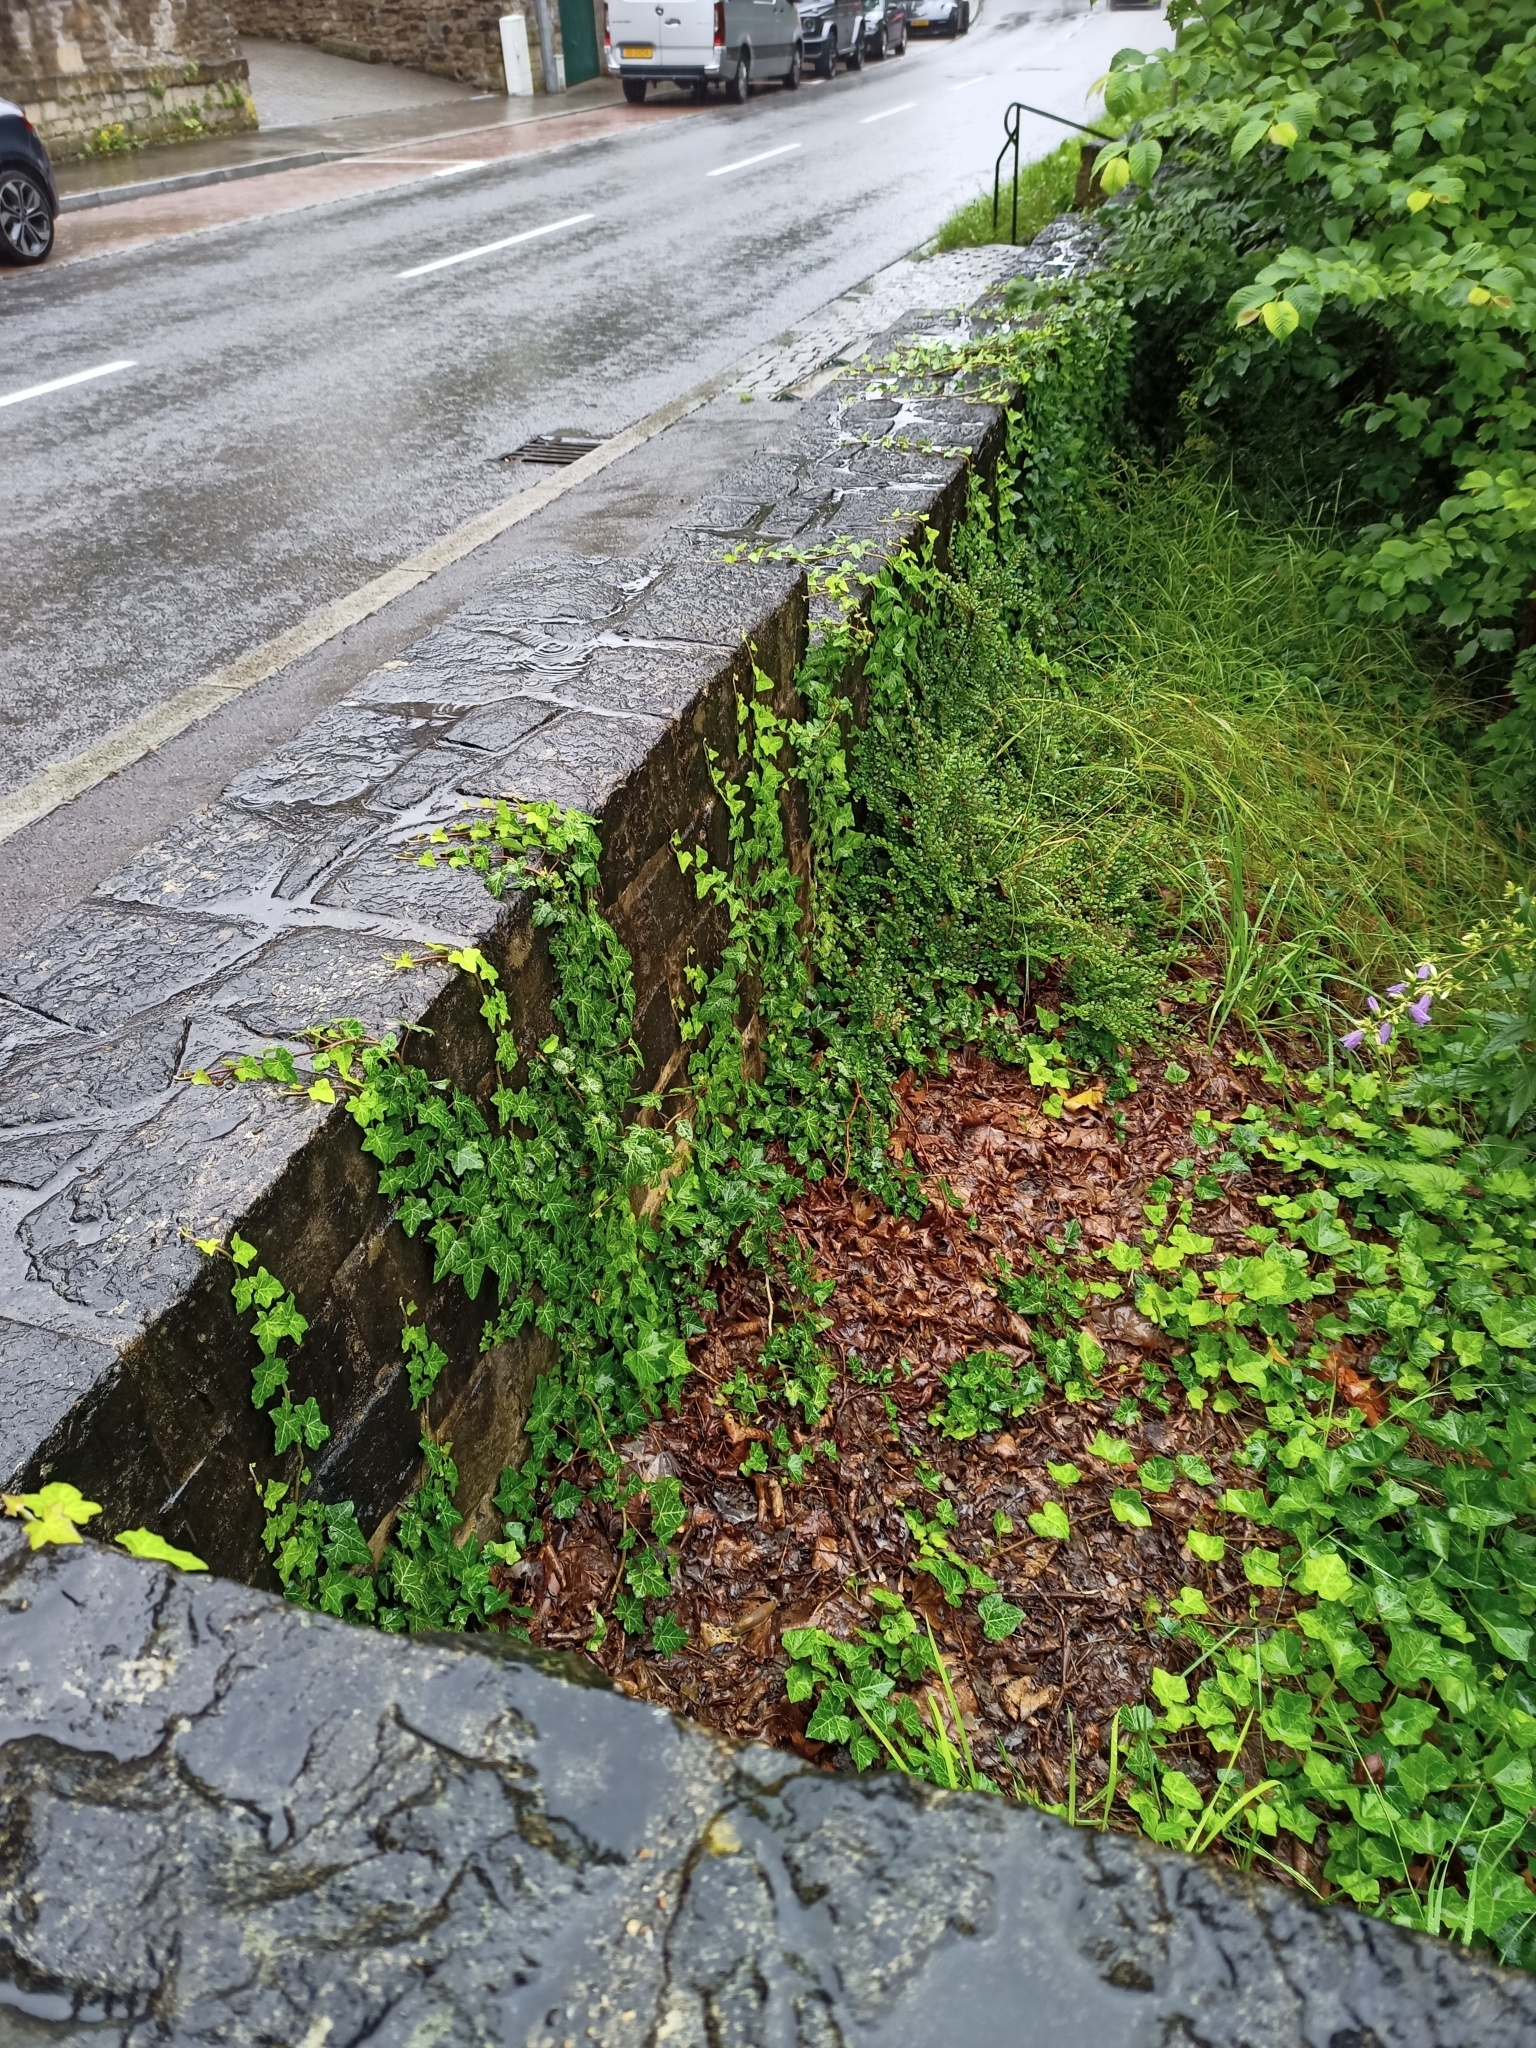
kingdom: Plantae
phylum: Tracheophyta
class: Magnoliopsida
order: Apiales
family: Araliaceae
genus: Hedera
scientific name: Hedera helix
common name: Ivy
